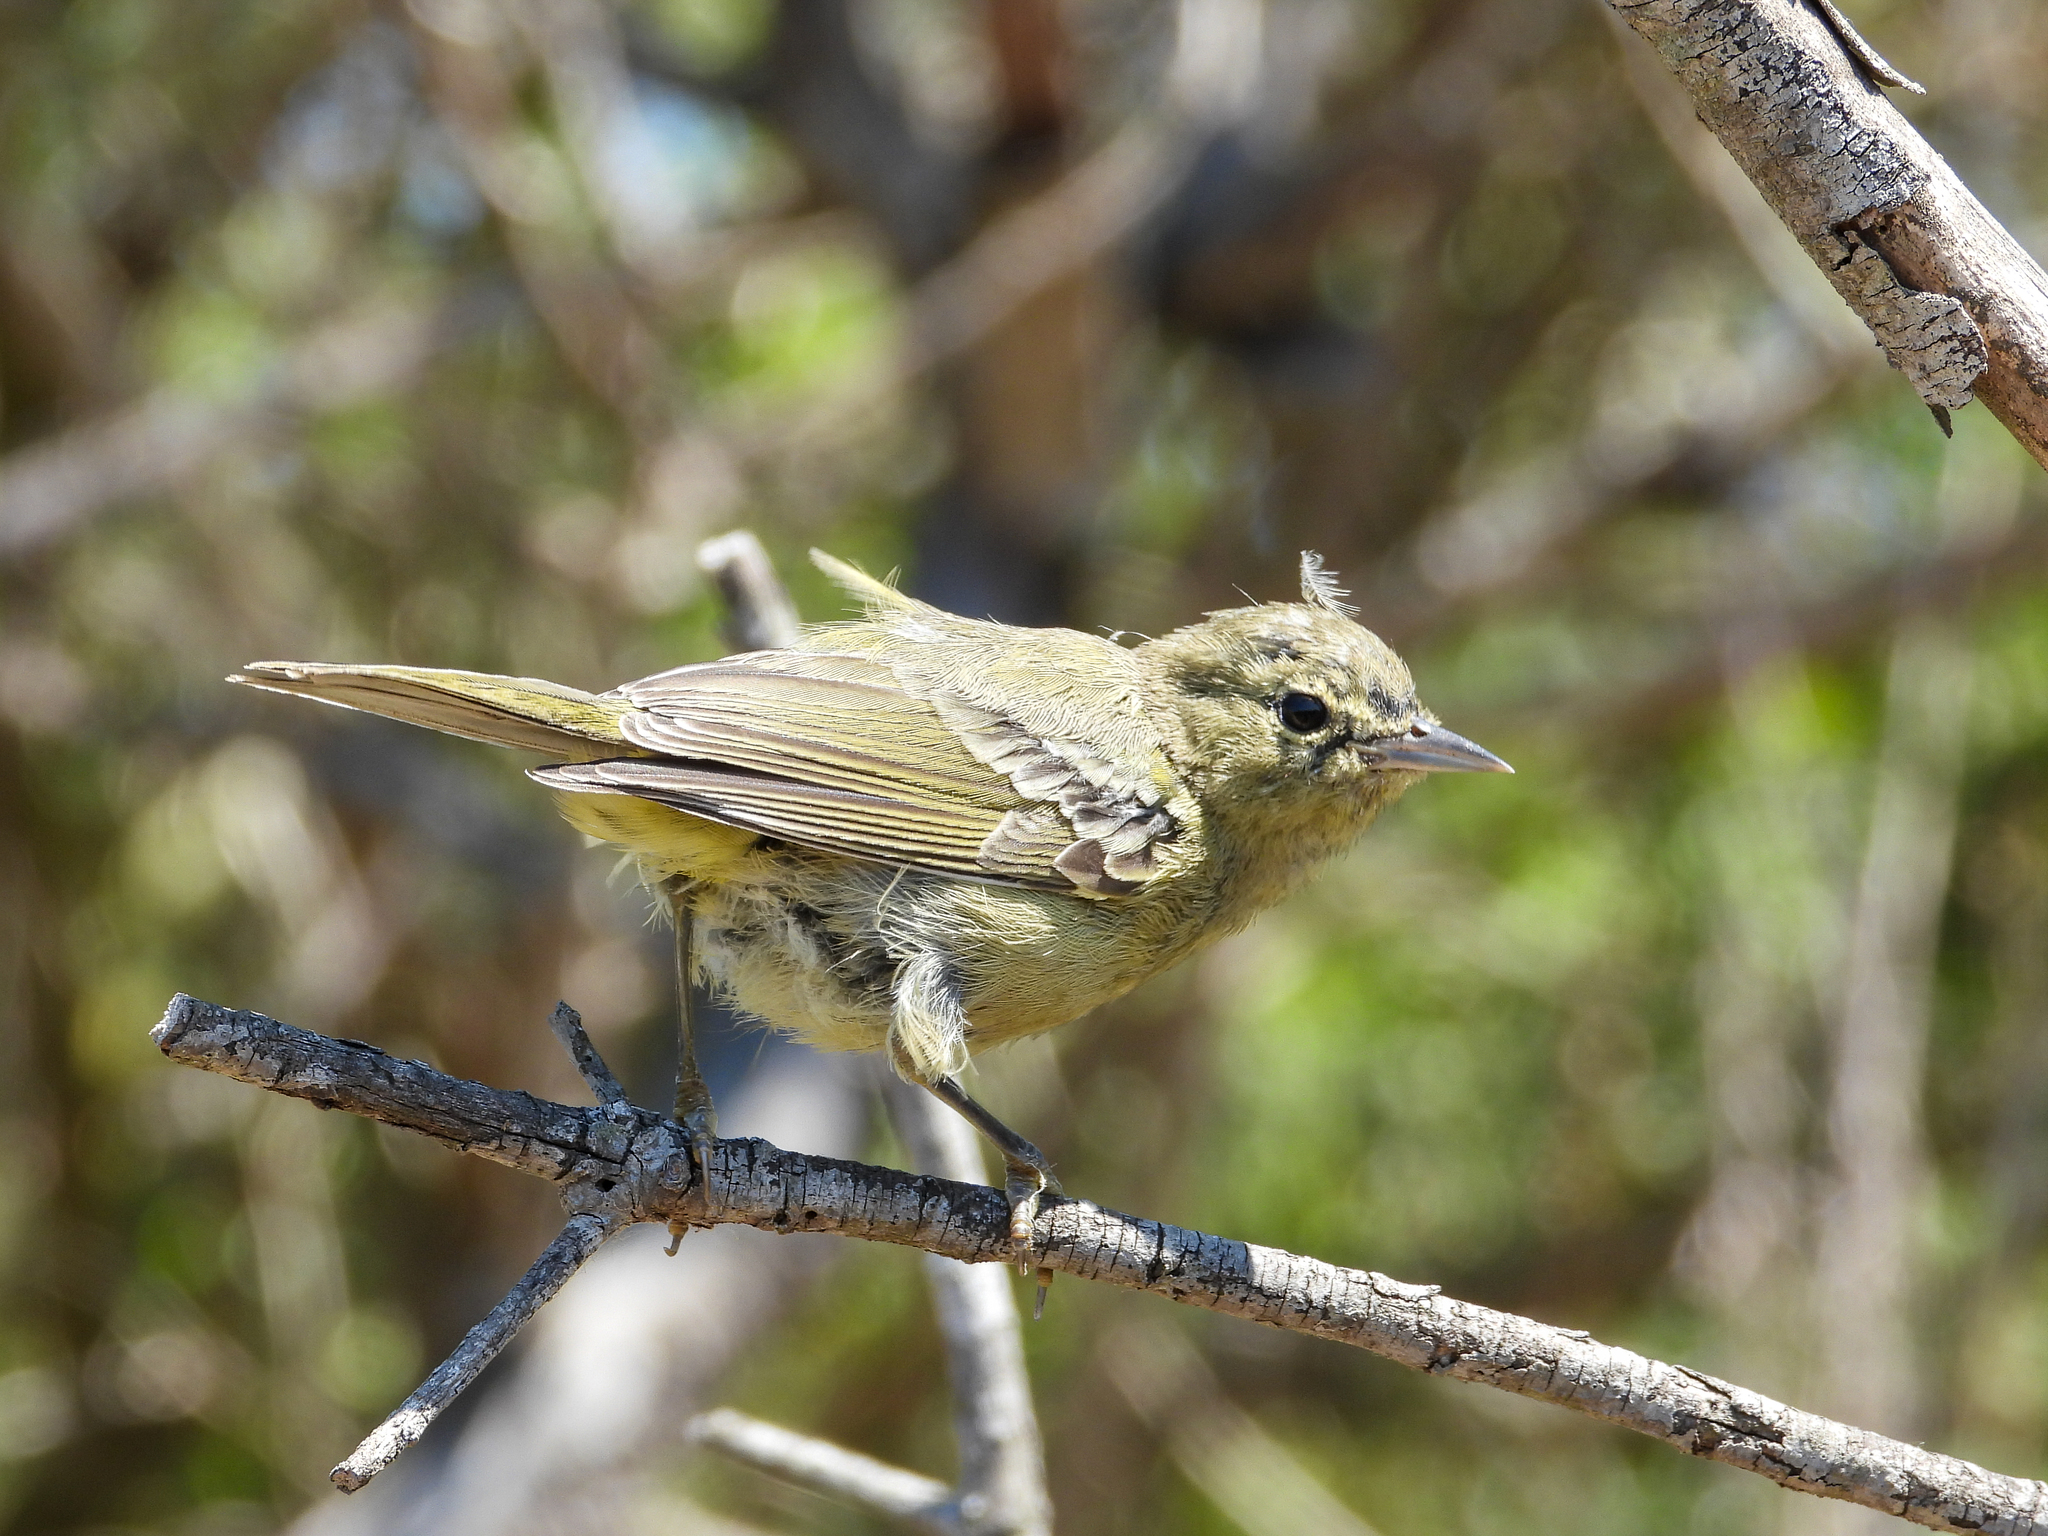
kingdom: Animalia
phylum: Chordata
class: Aves
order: Passeriformes
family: Parulidae
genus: Leiothlypis
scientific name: Leiothlypis celata
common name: Orange-crowned warbler
